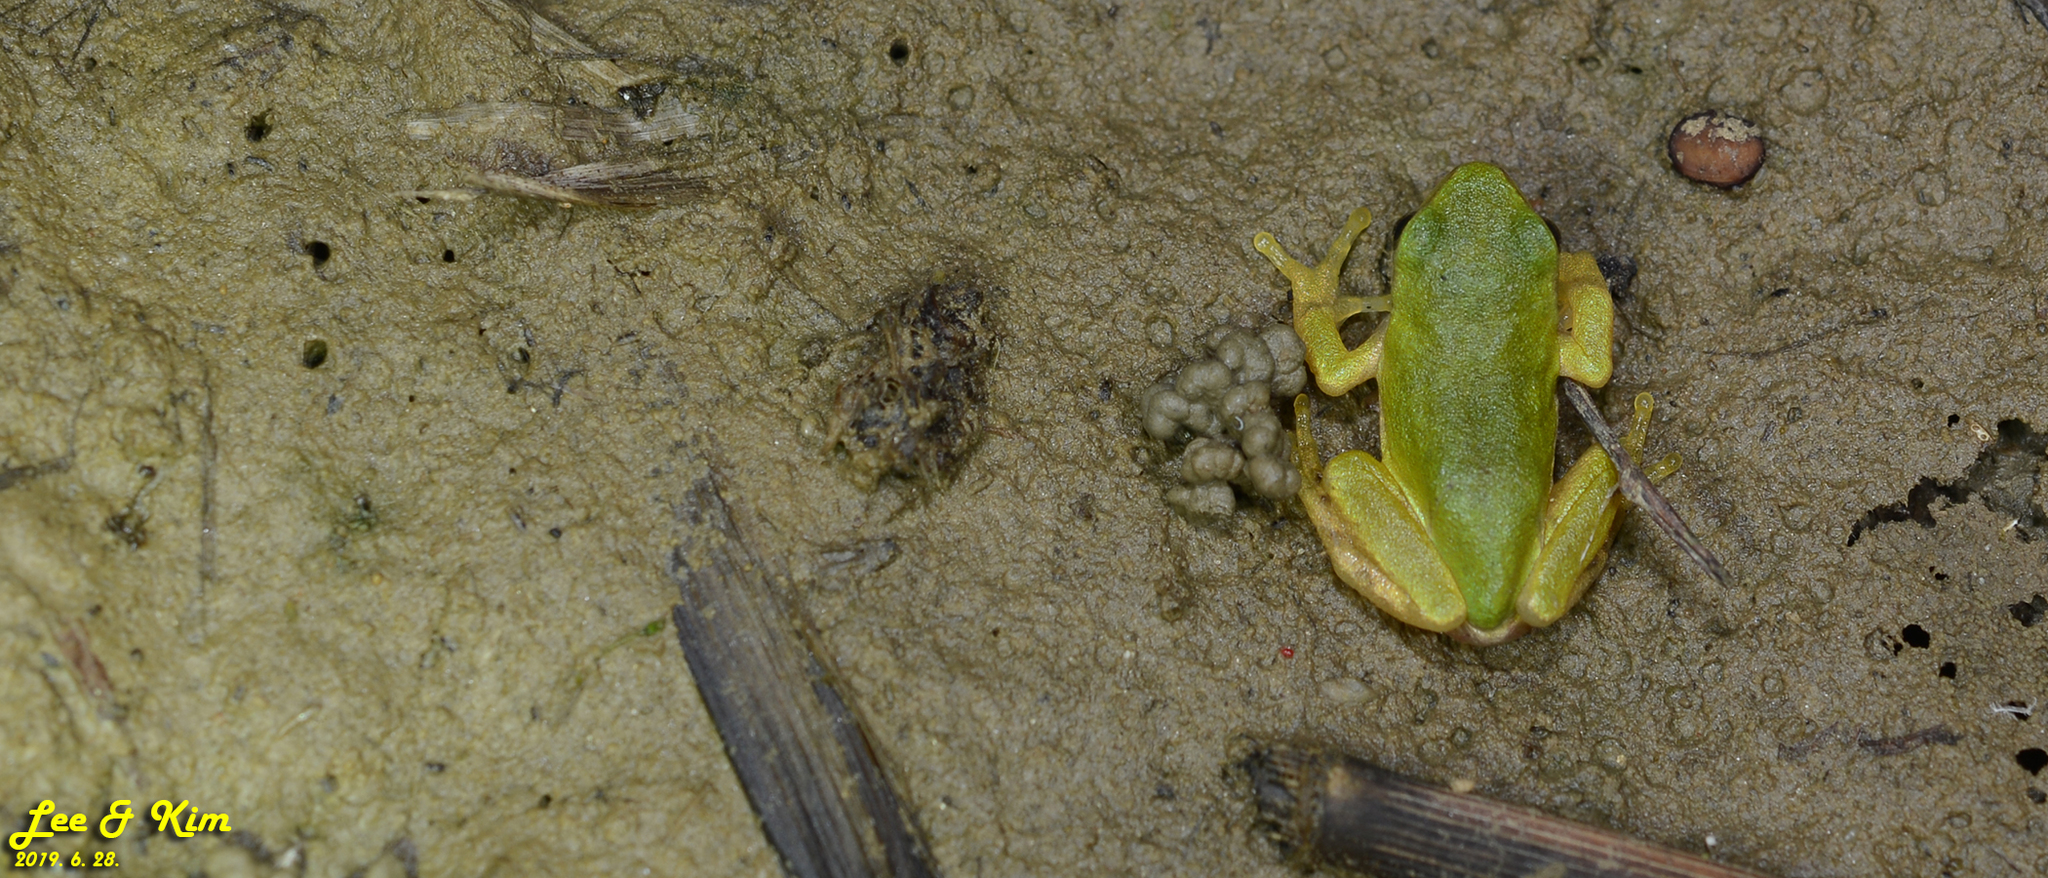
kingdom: Animalia
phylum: Chordata
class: Amphibia
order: Anura
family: Hylidae
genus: Dryophytes
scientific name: Dryophytes japonicus
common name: Japanese treefrog
